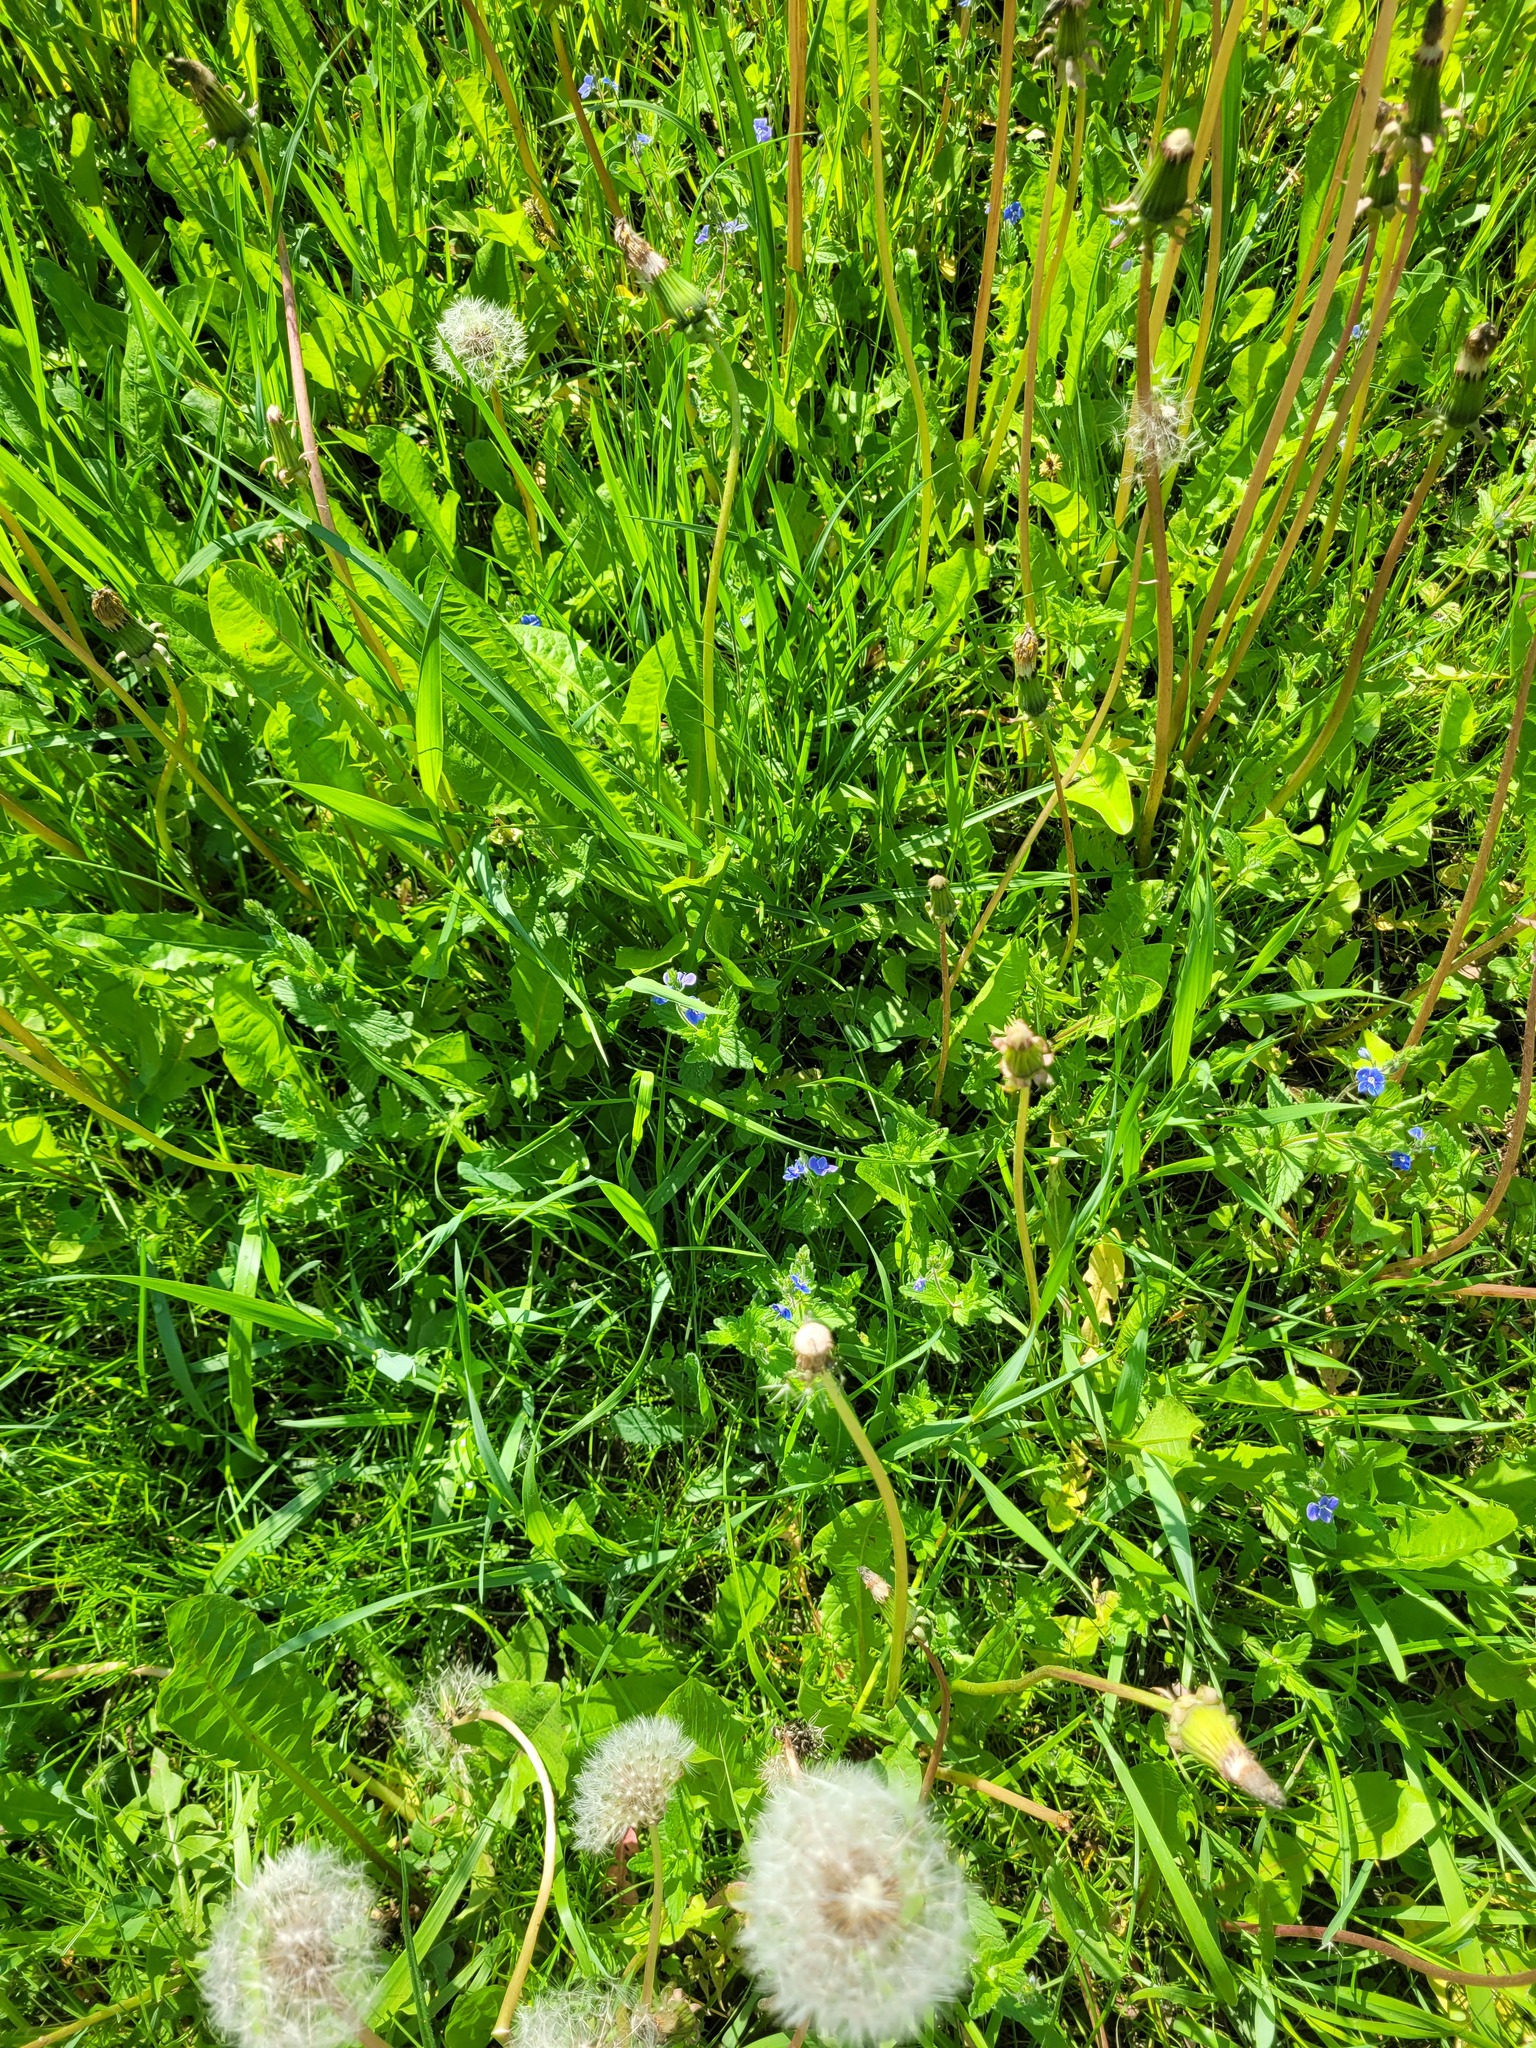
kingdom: Plantae
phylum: Tracheophyta
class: Magnoliopsida
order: Lamiales
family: Plantaginaceae
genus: Veronica
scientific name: Veronica chamaedrys
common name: Germander speedwell
